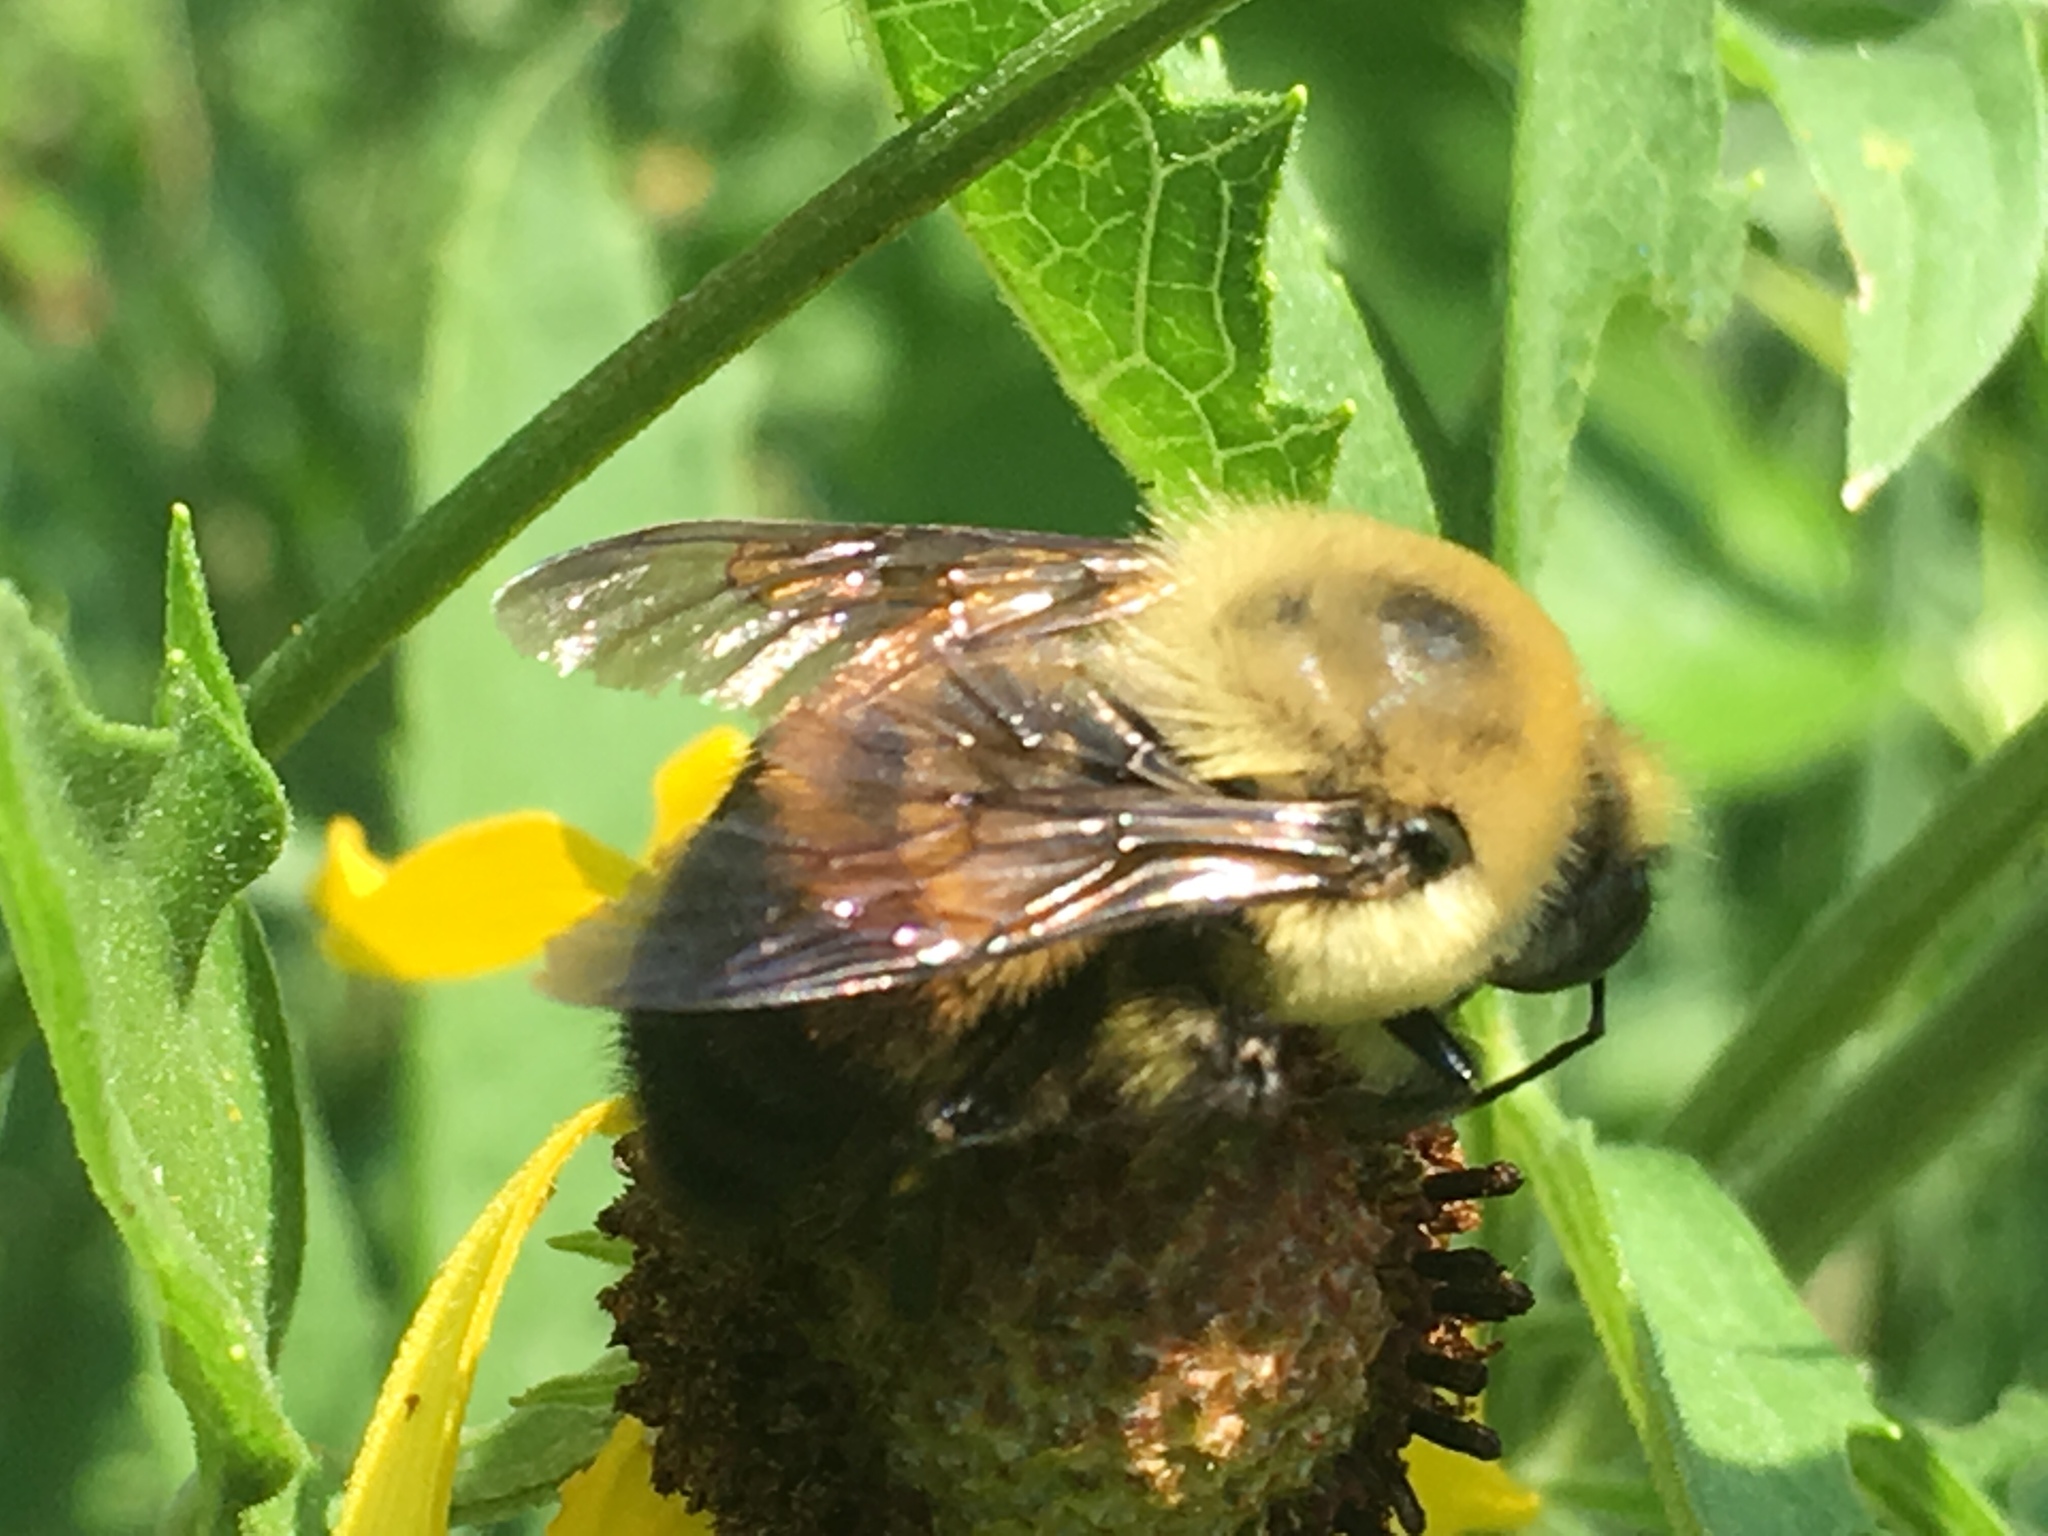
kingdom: Animalia
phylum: Arthropoda
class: Insecta
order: Hymenoptera
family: Apidae
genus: Bombus
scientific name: Bombus griseocollis
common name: Brown-belted bumble bee
